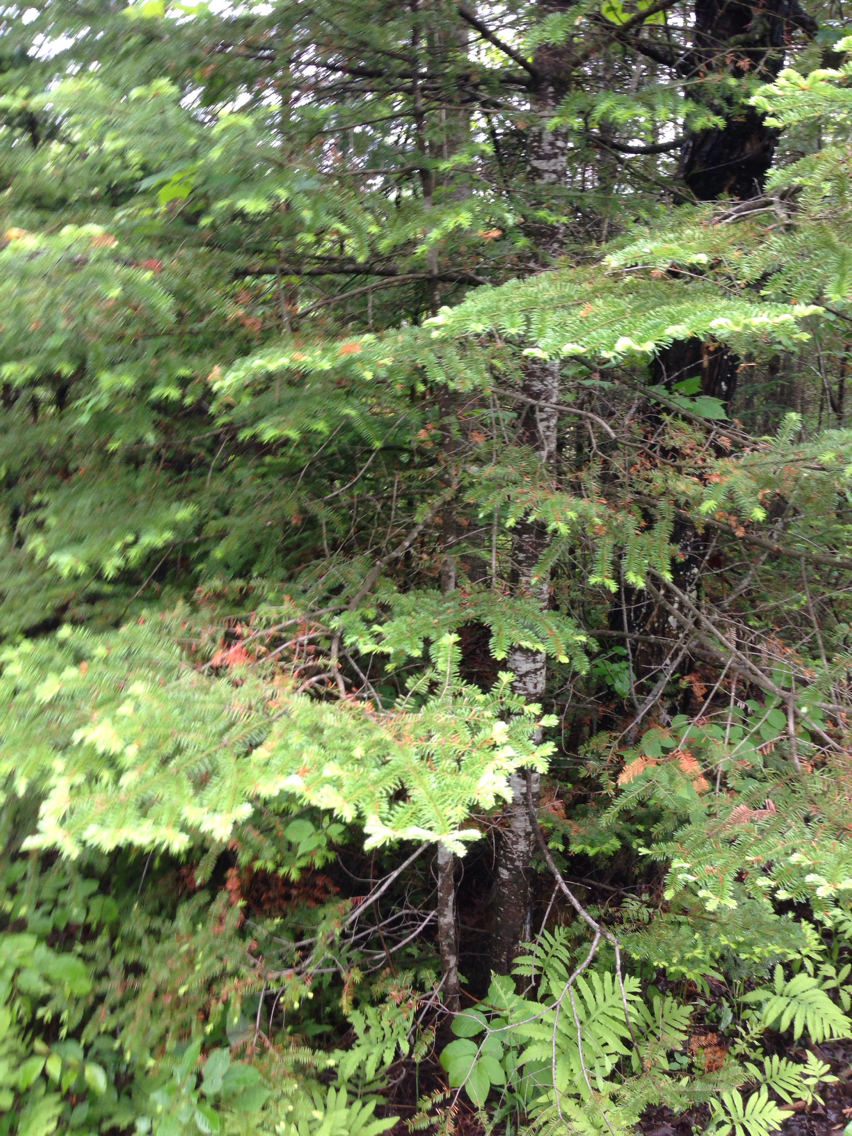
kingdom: Plantae
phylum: Tracheophyta
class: Pinopsida
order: Pinales
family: Pinaceae
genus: Abies
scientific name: Abies balsamea
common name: Balsam fir
